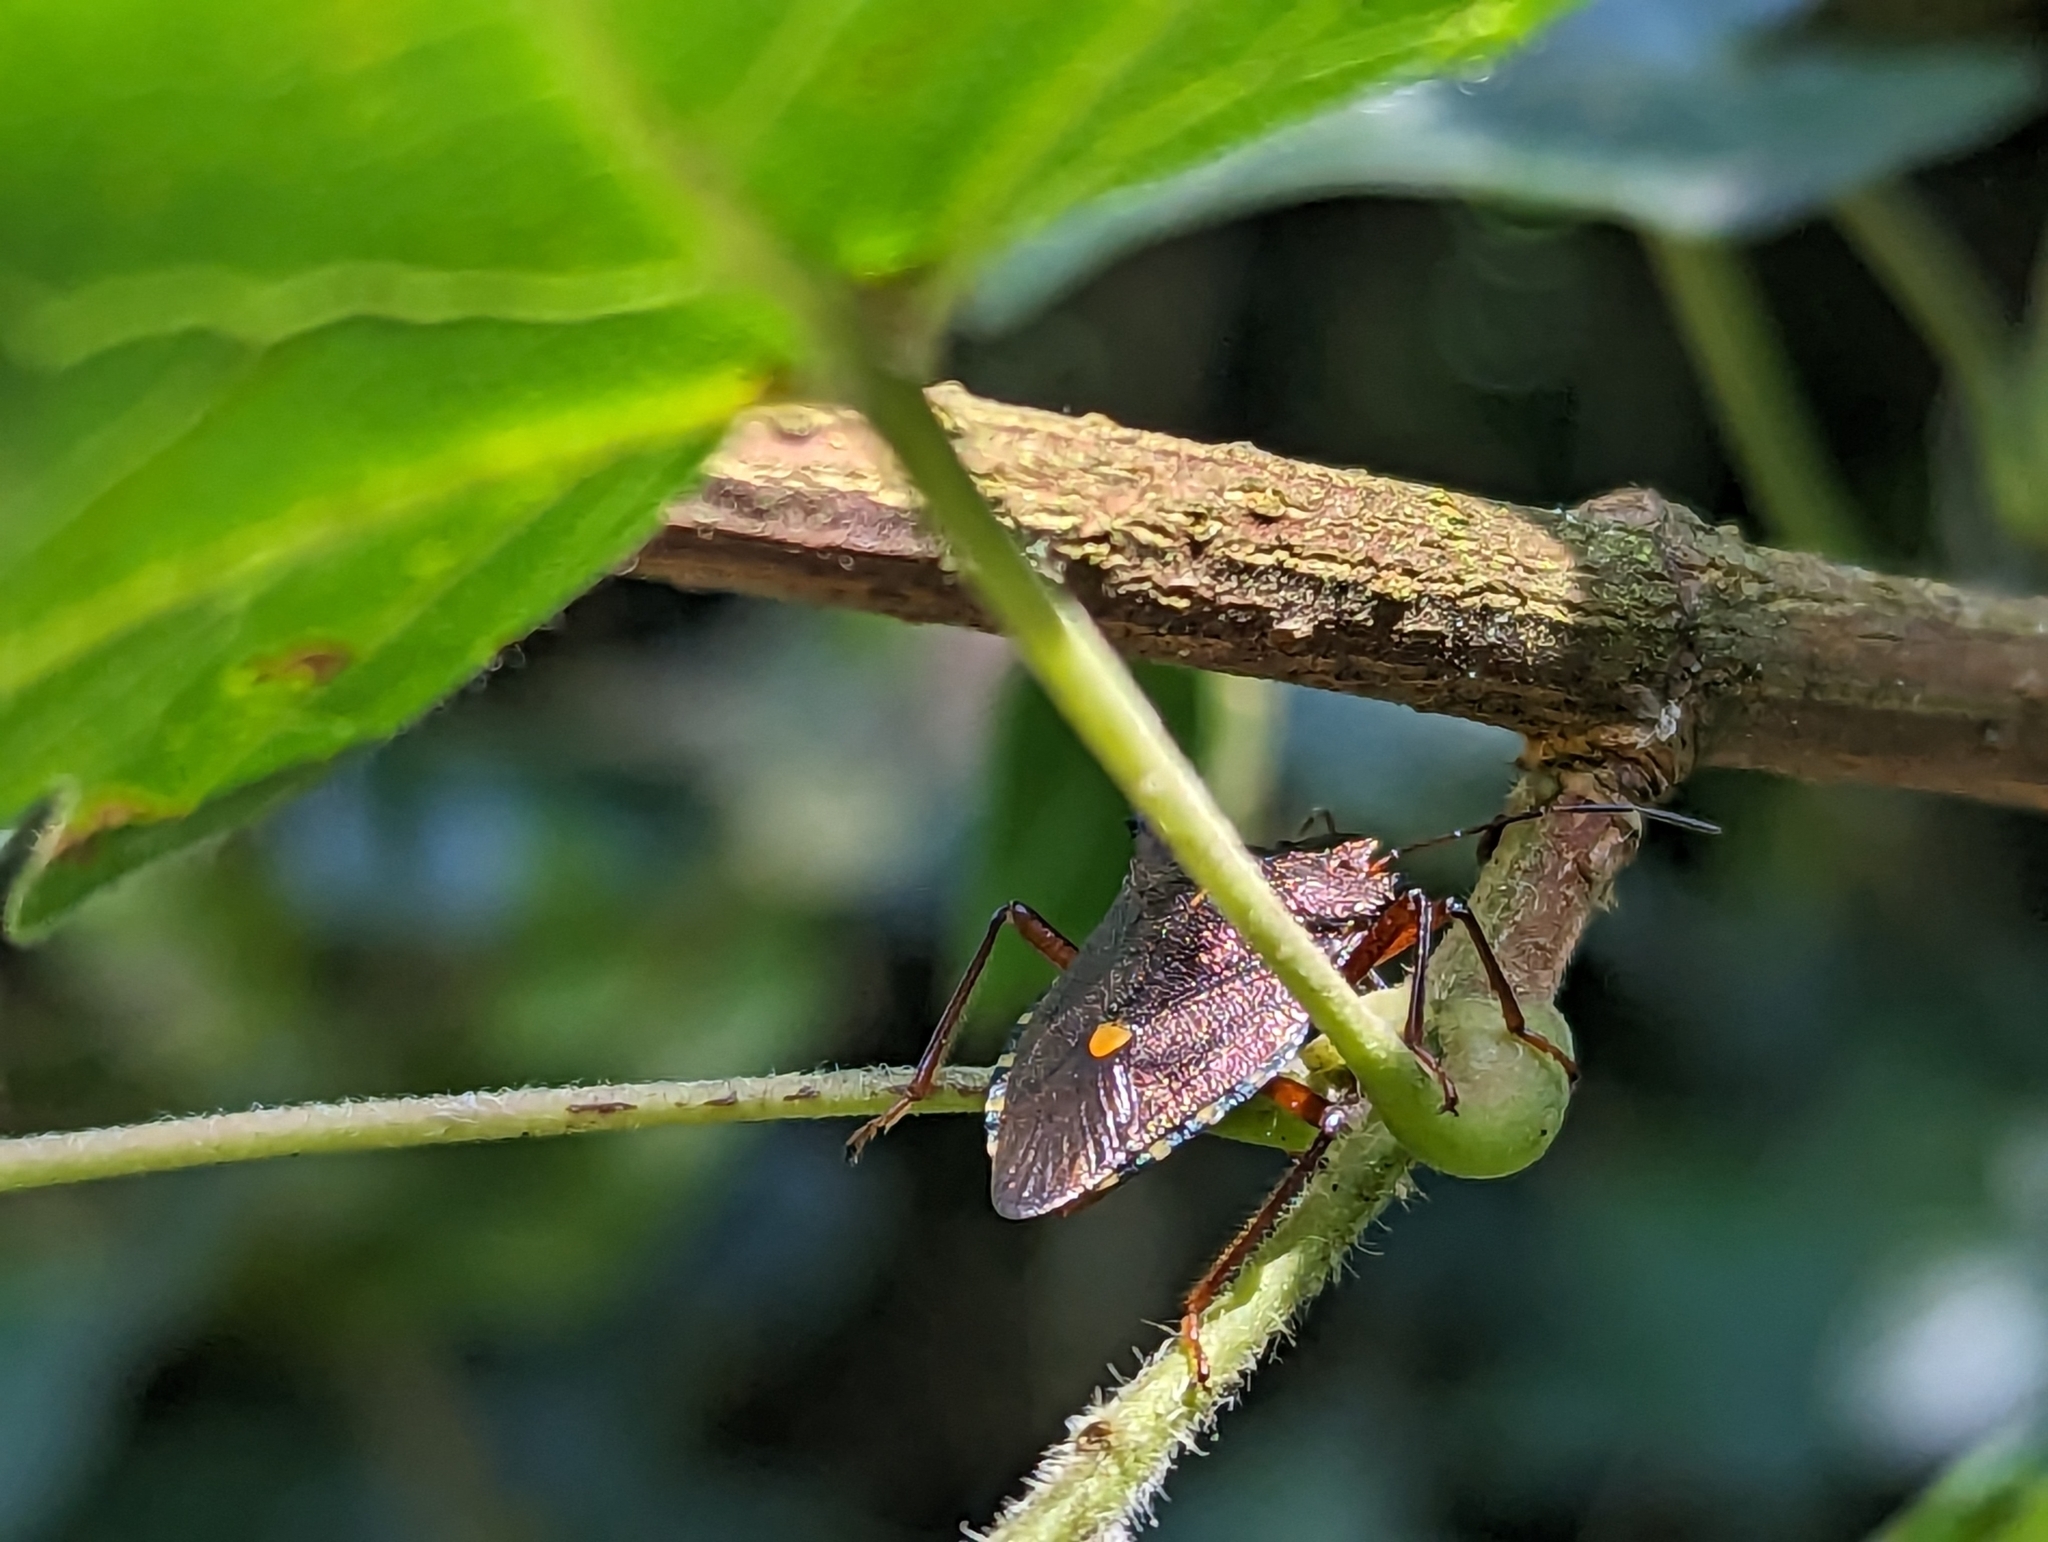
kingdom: Animalia
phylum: Arthropoda
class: Insecta
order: Hemiptera
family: Pentatomidae
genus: Pentatoma
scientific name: Pentatoma rufipes
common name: Forest bug
